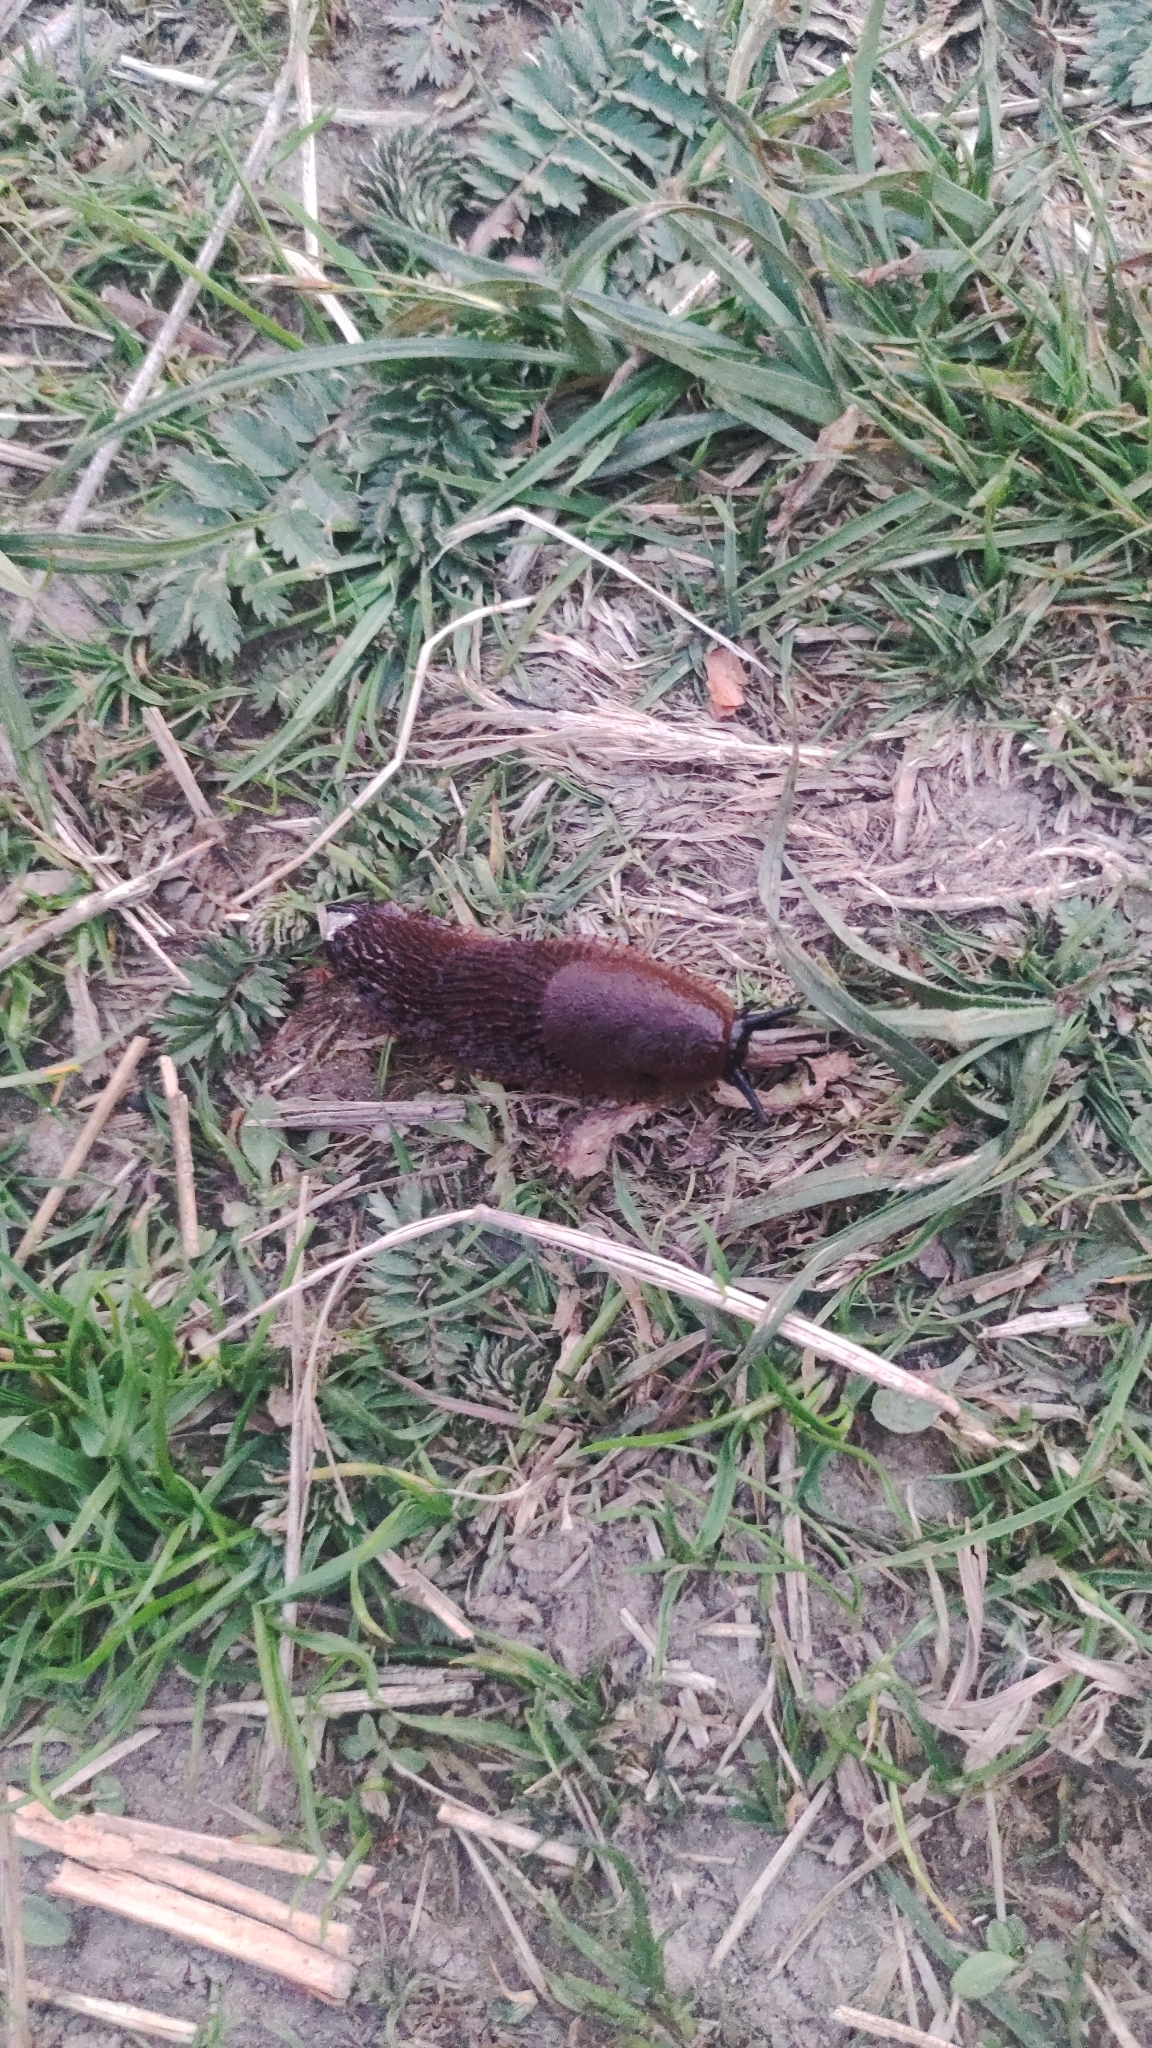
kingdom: Animalia
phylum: Mollusca
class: Gastropoda
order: Stylommatophora
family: Arionidae
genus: Arion
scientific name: Arion vulgaris
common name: Lusitanian slug
